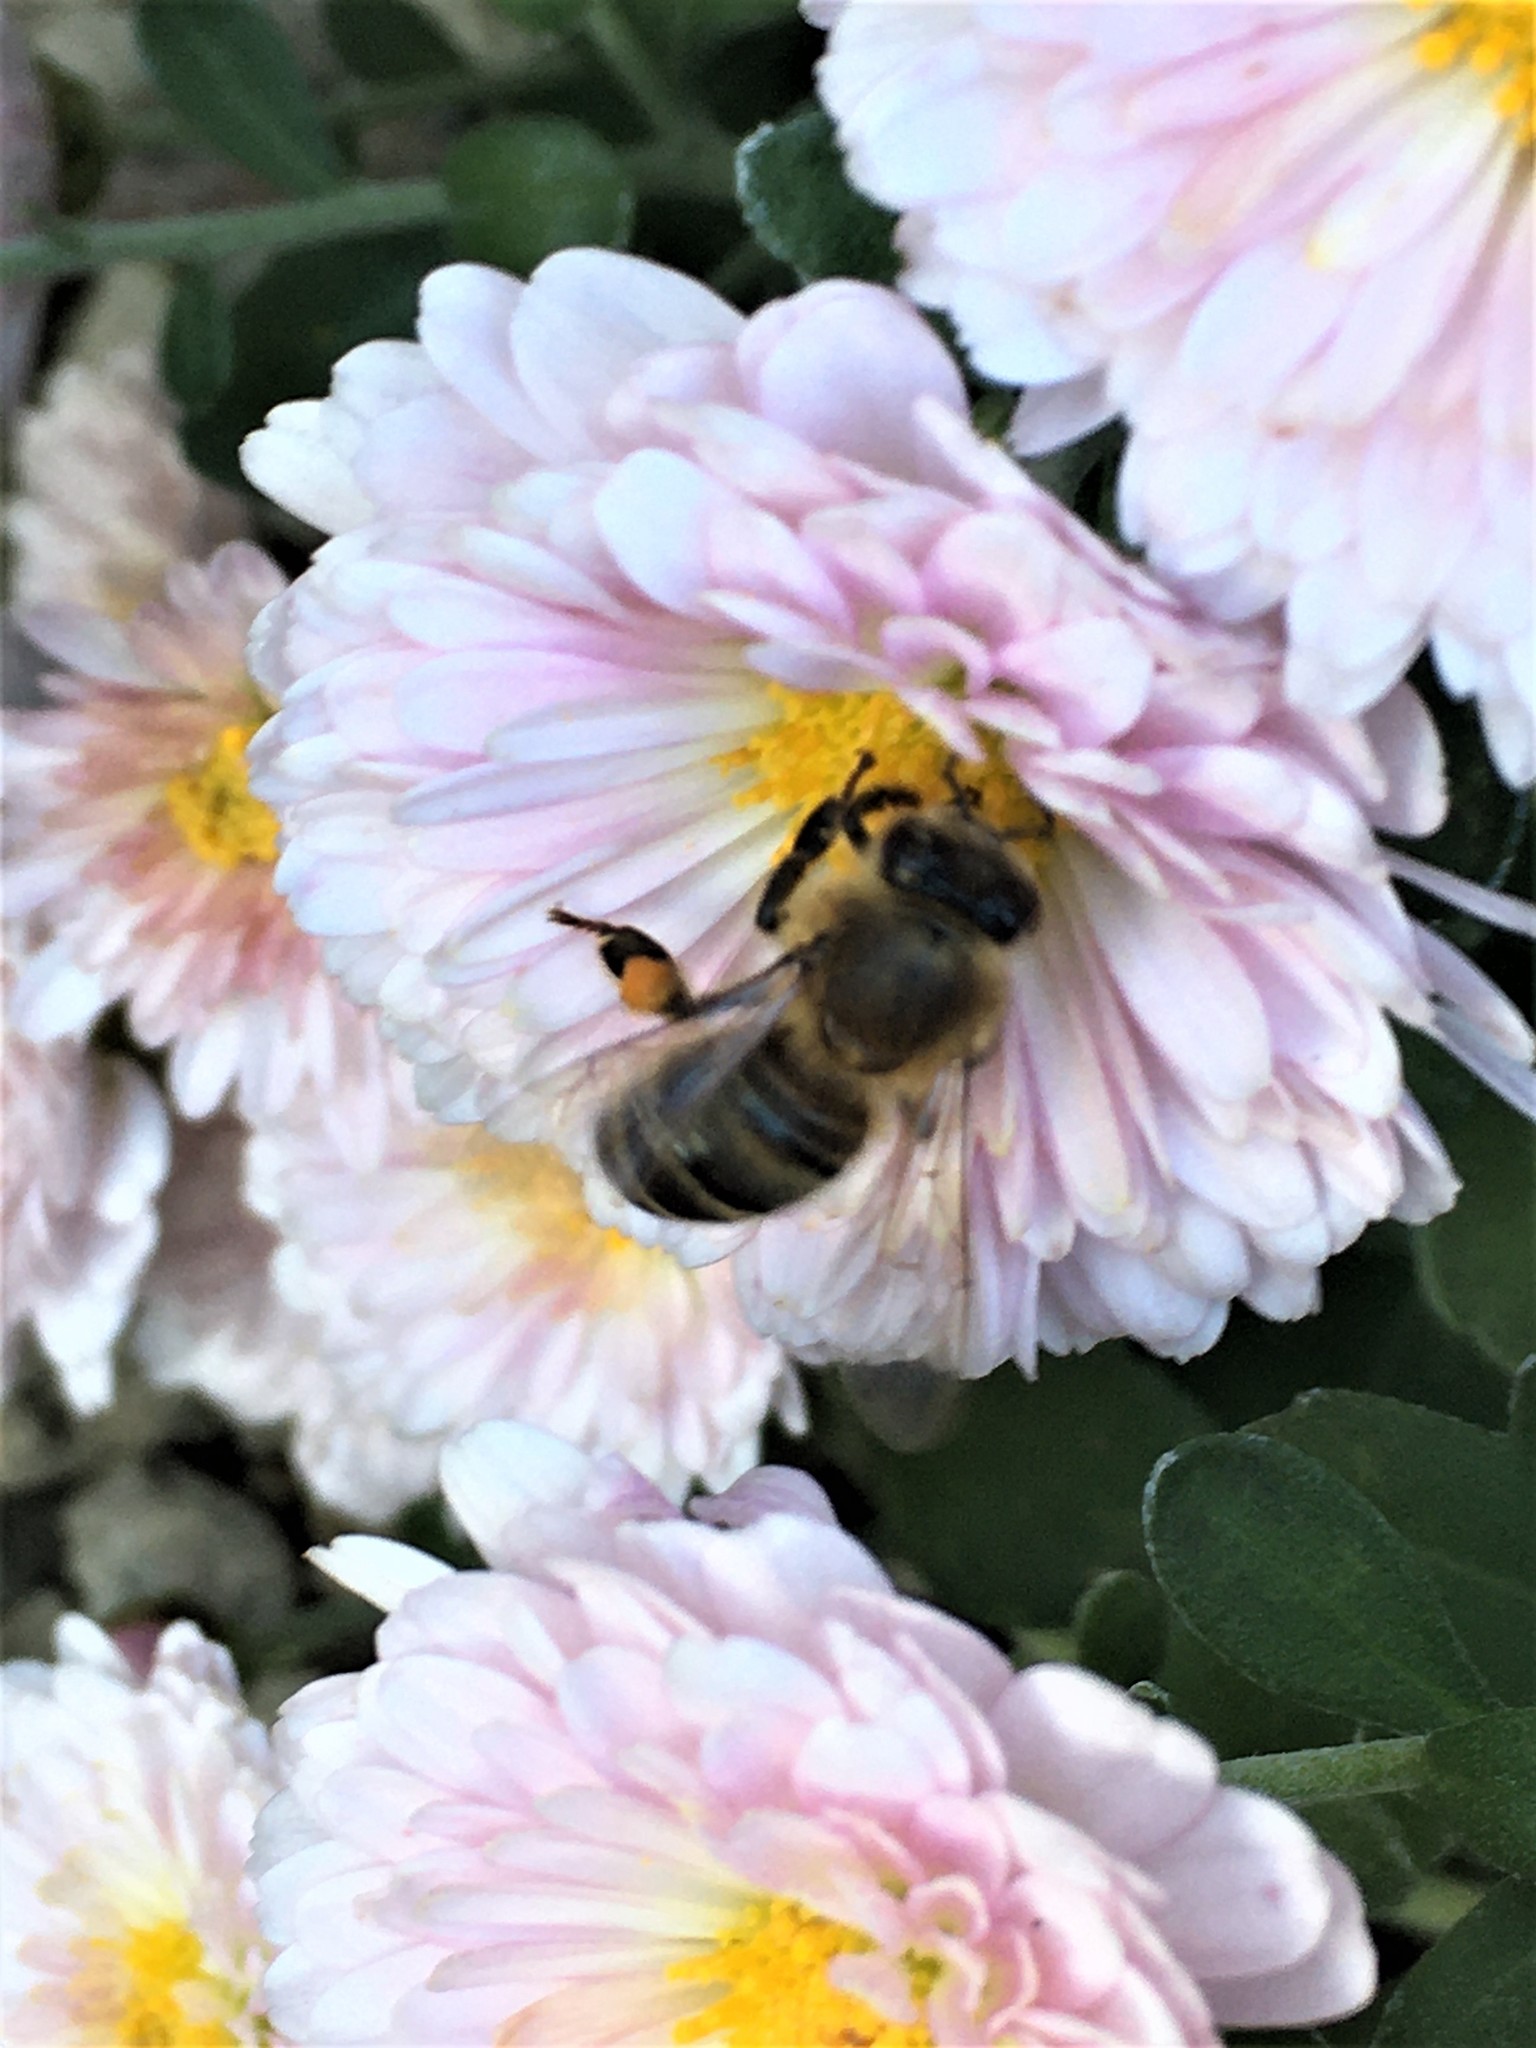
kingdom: Animalia
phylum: Arthropoda
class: Insecta
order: Hymenoptera
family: Apidae
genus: Apis
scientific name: Apis mellifera
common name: Honey bee
